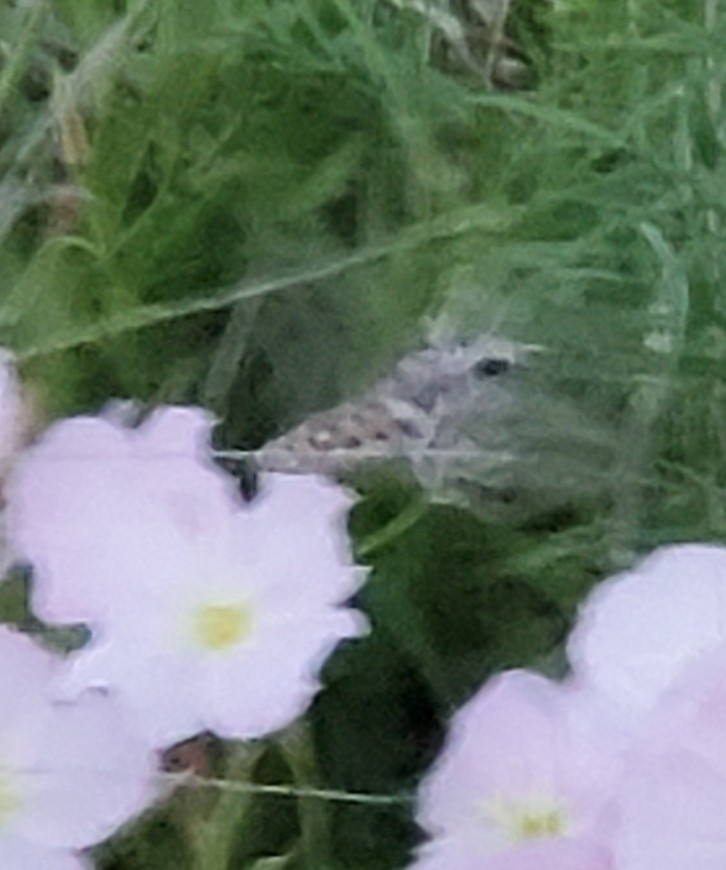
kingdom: Animalia
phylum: Arthropoda
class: Insecta
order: Lepidoptera
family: Sphingidae
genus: Hyles
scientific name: Hyles lineata
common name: White-lined sphinx
